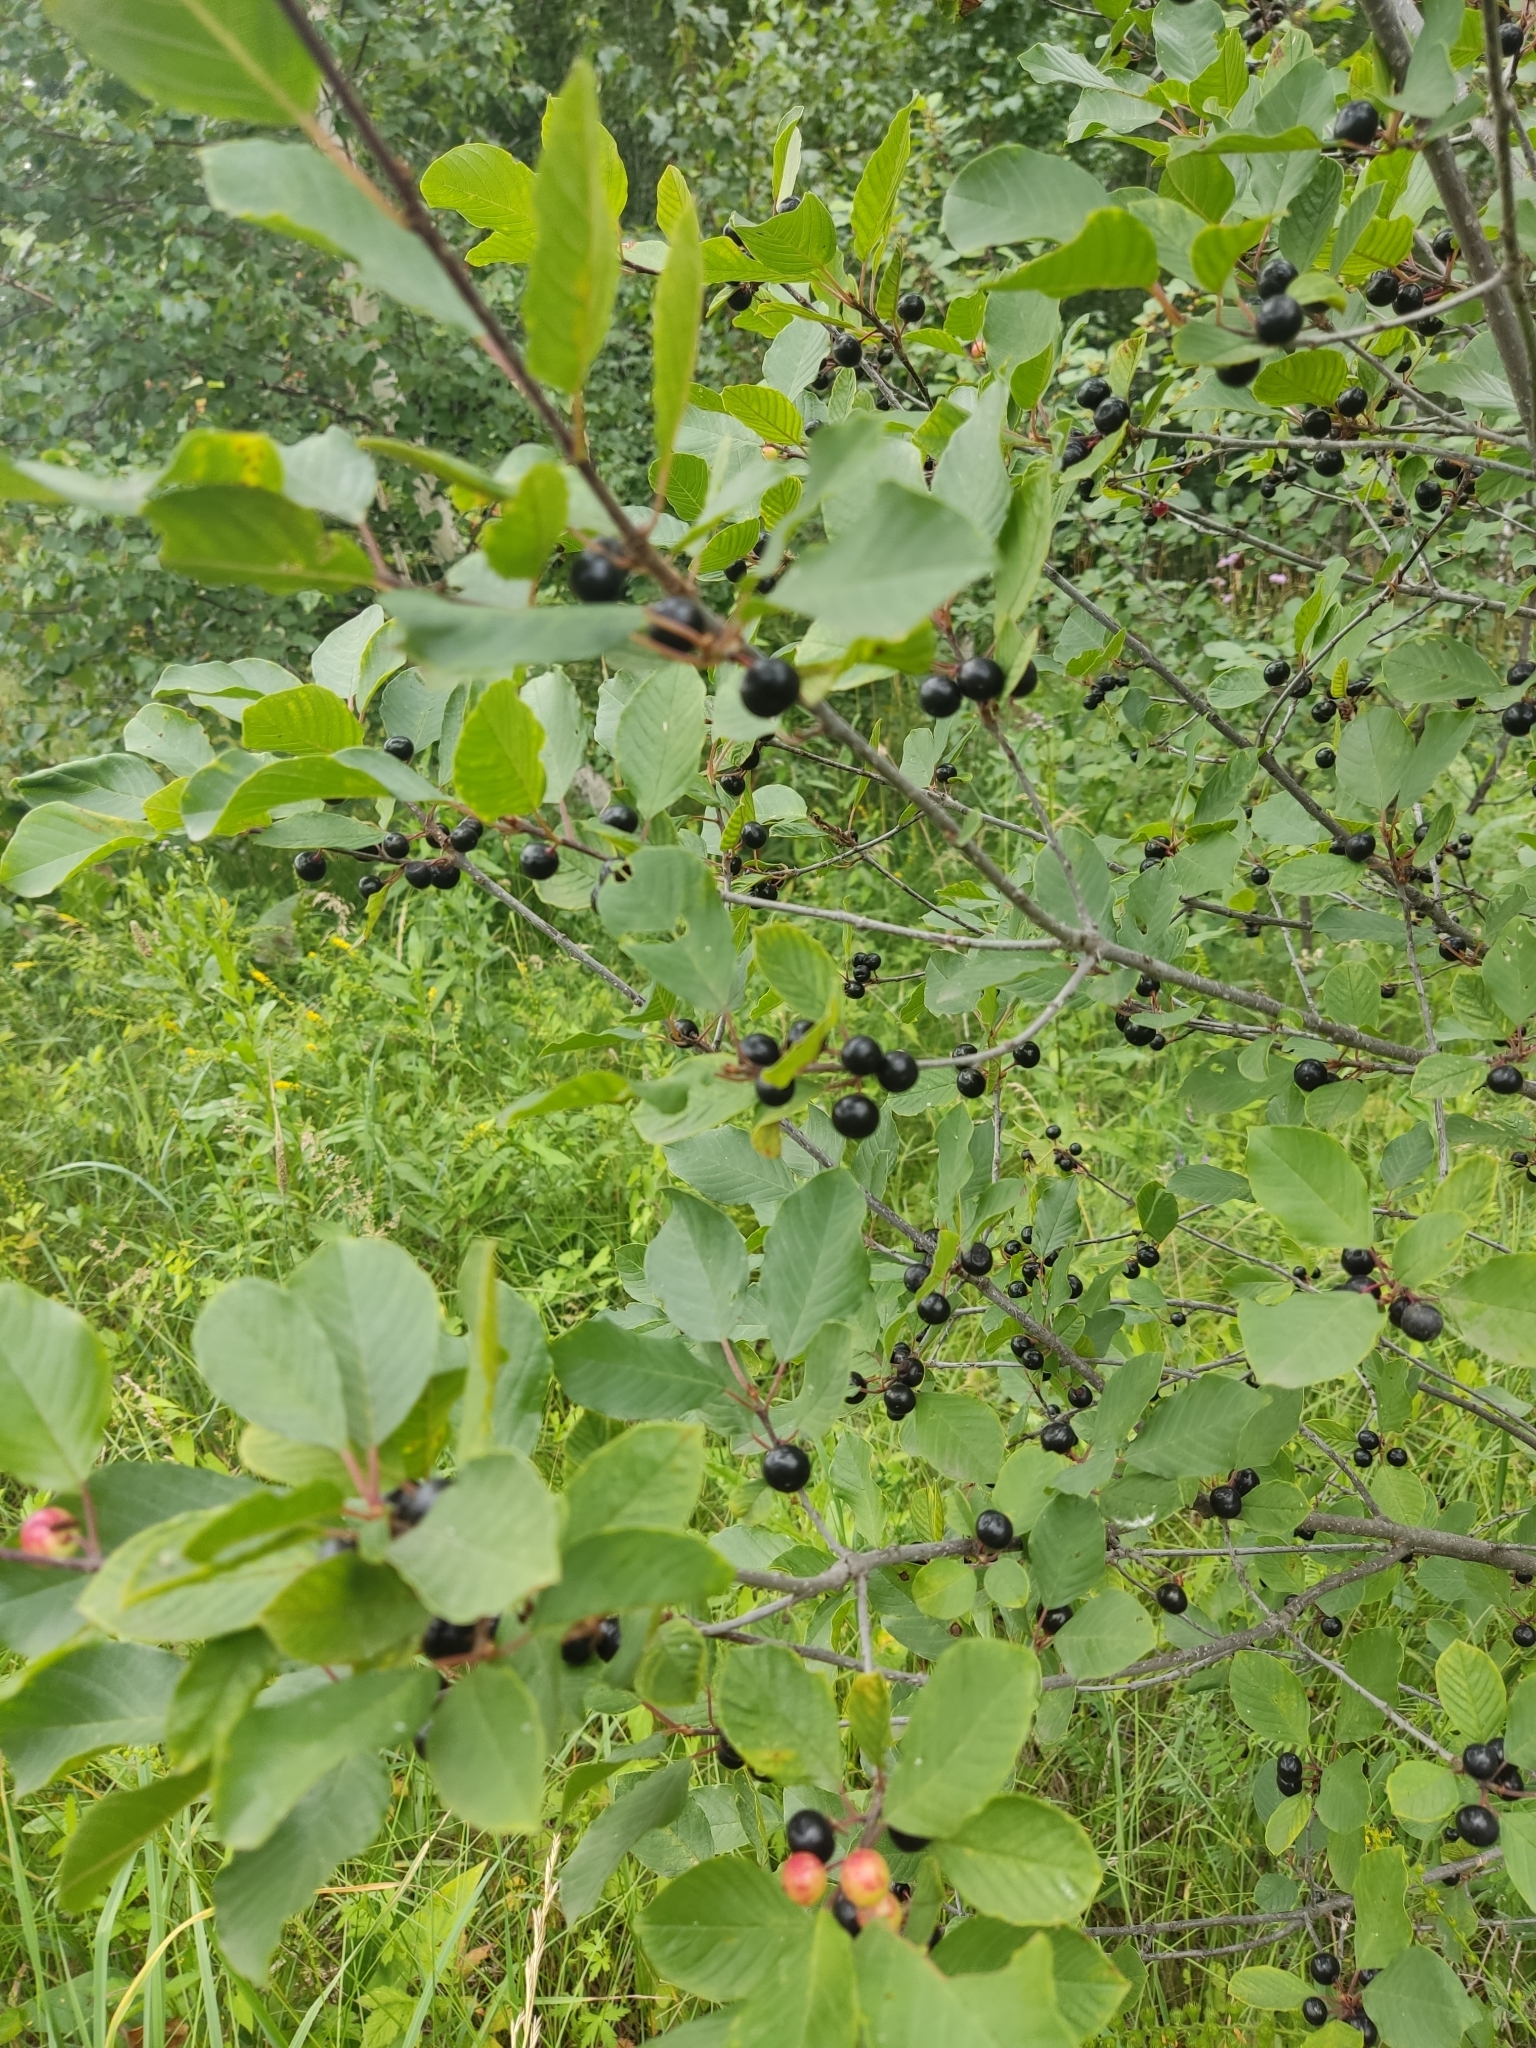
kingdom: Plantae
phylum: Tracheophyta
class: Magnoliopsida
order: Rosales
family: Rhamnaceae
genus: Frangula
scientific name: Frangula alnus
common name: Alder buckthorn
